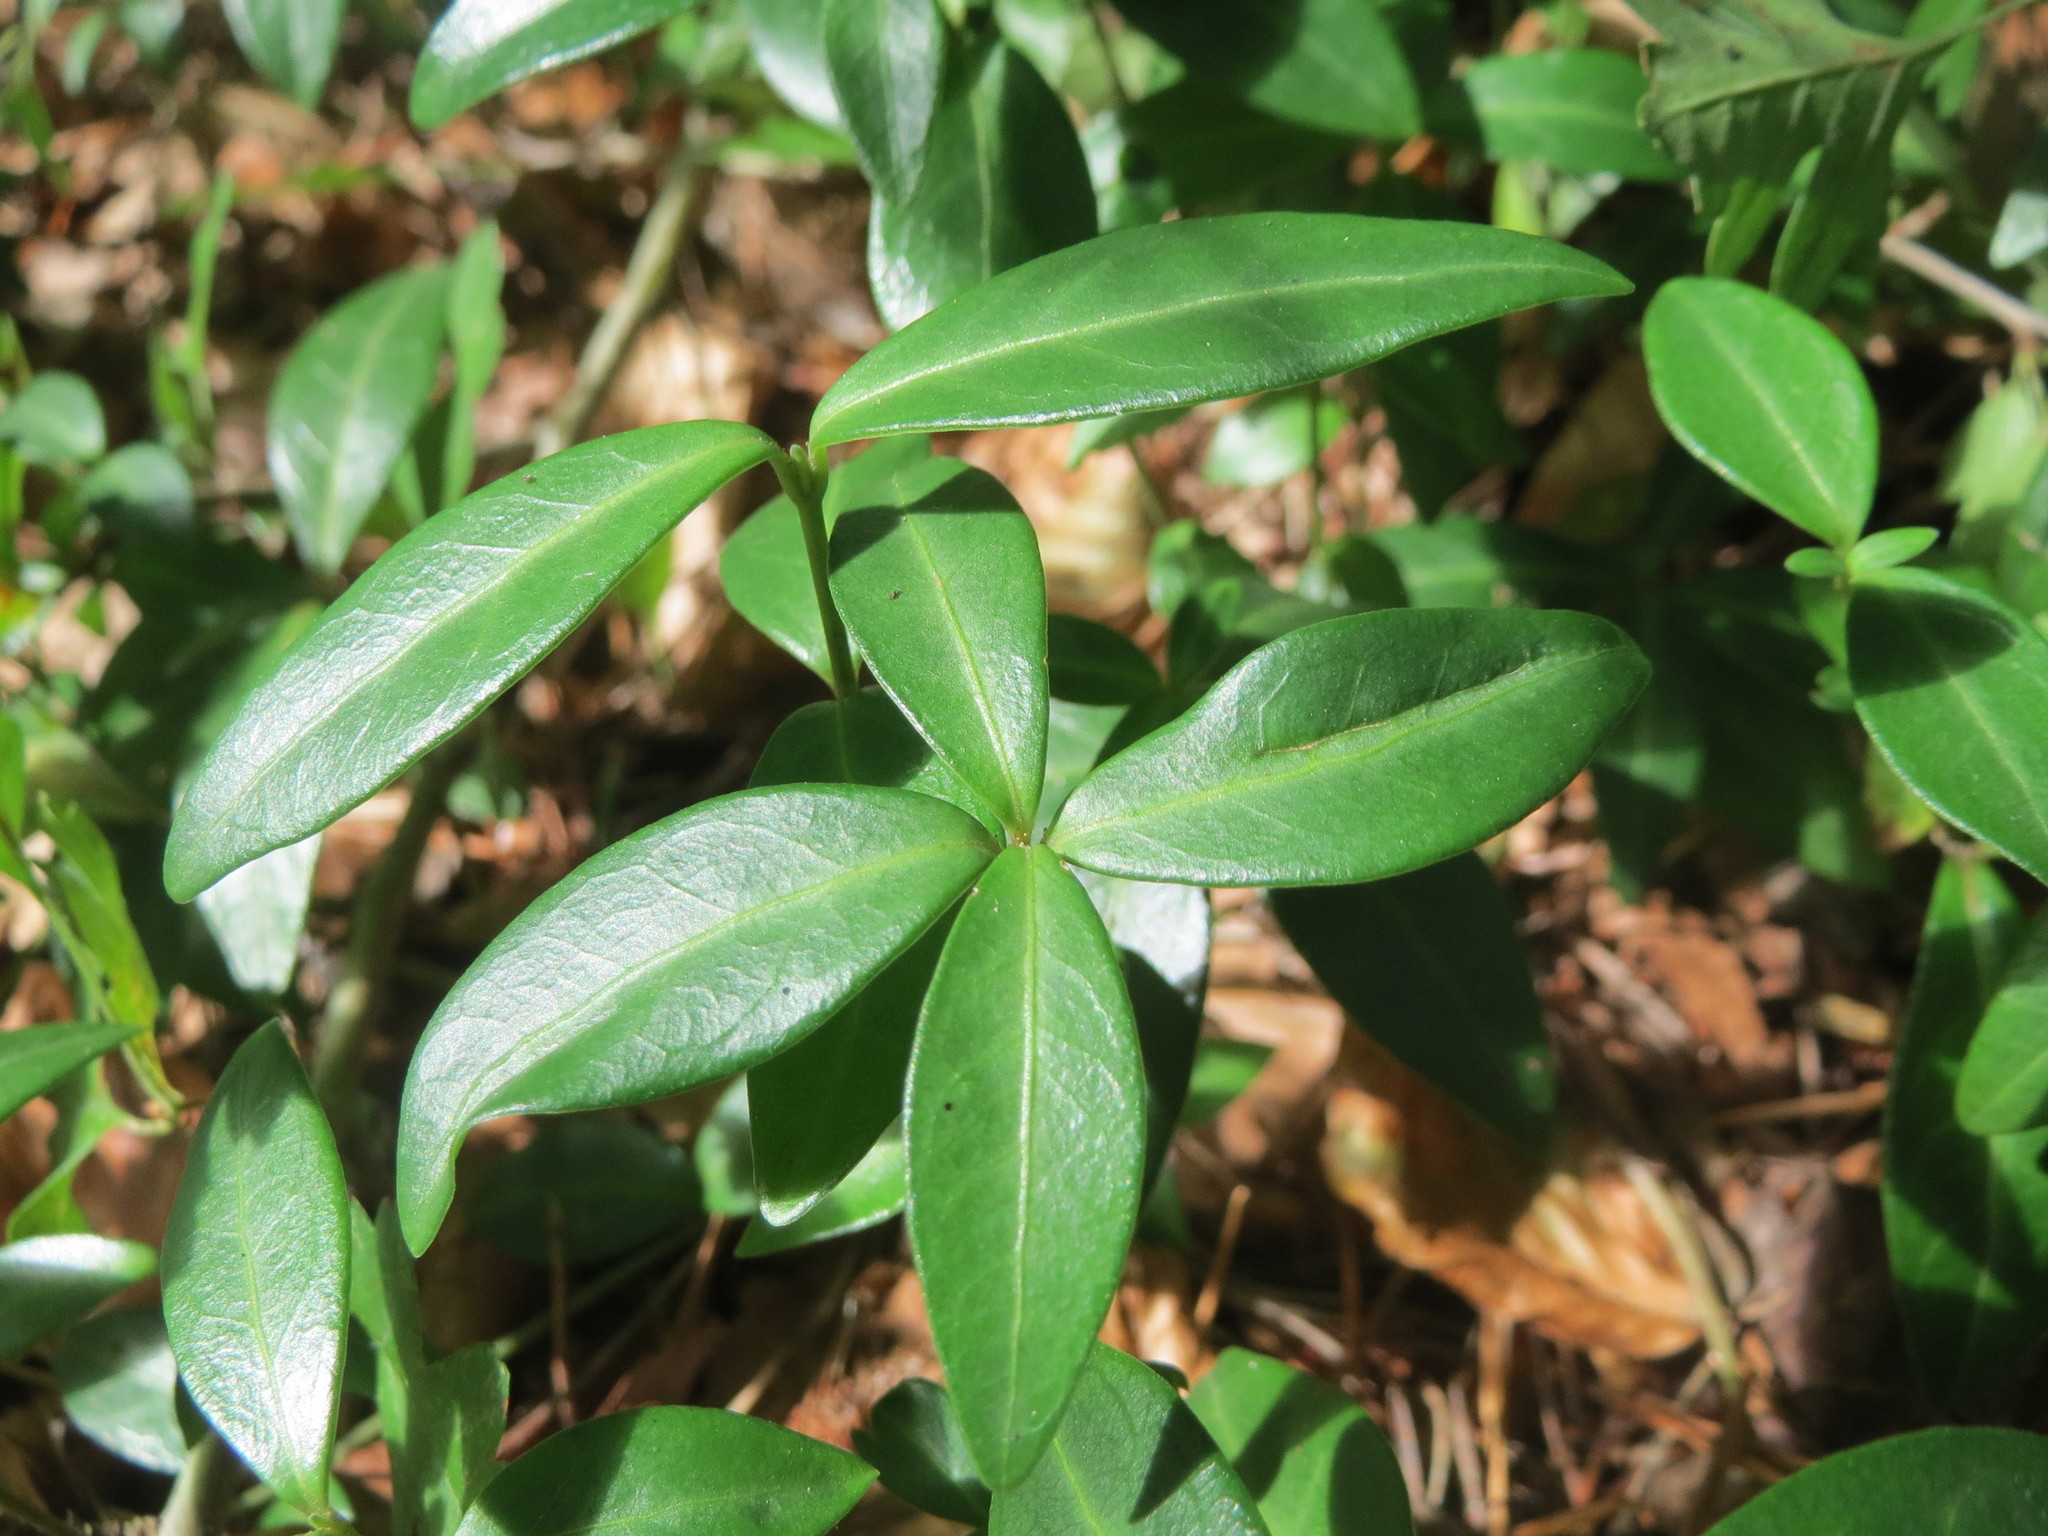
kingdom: Plantae
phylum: Tracheophyta
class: Magnoliopsida
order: Gentianales
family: Apocynaceae
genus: Vinca
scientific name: Vinca minor
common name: Lesser periwinkle
